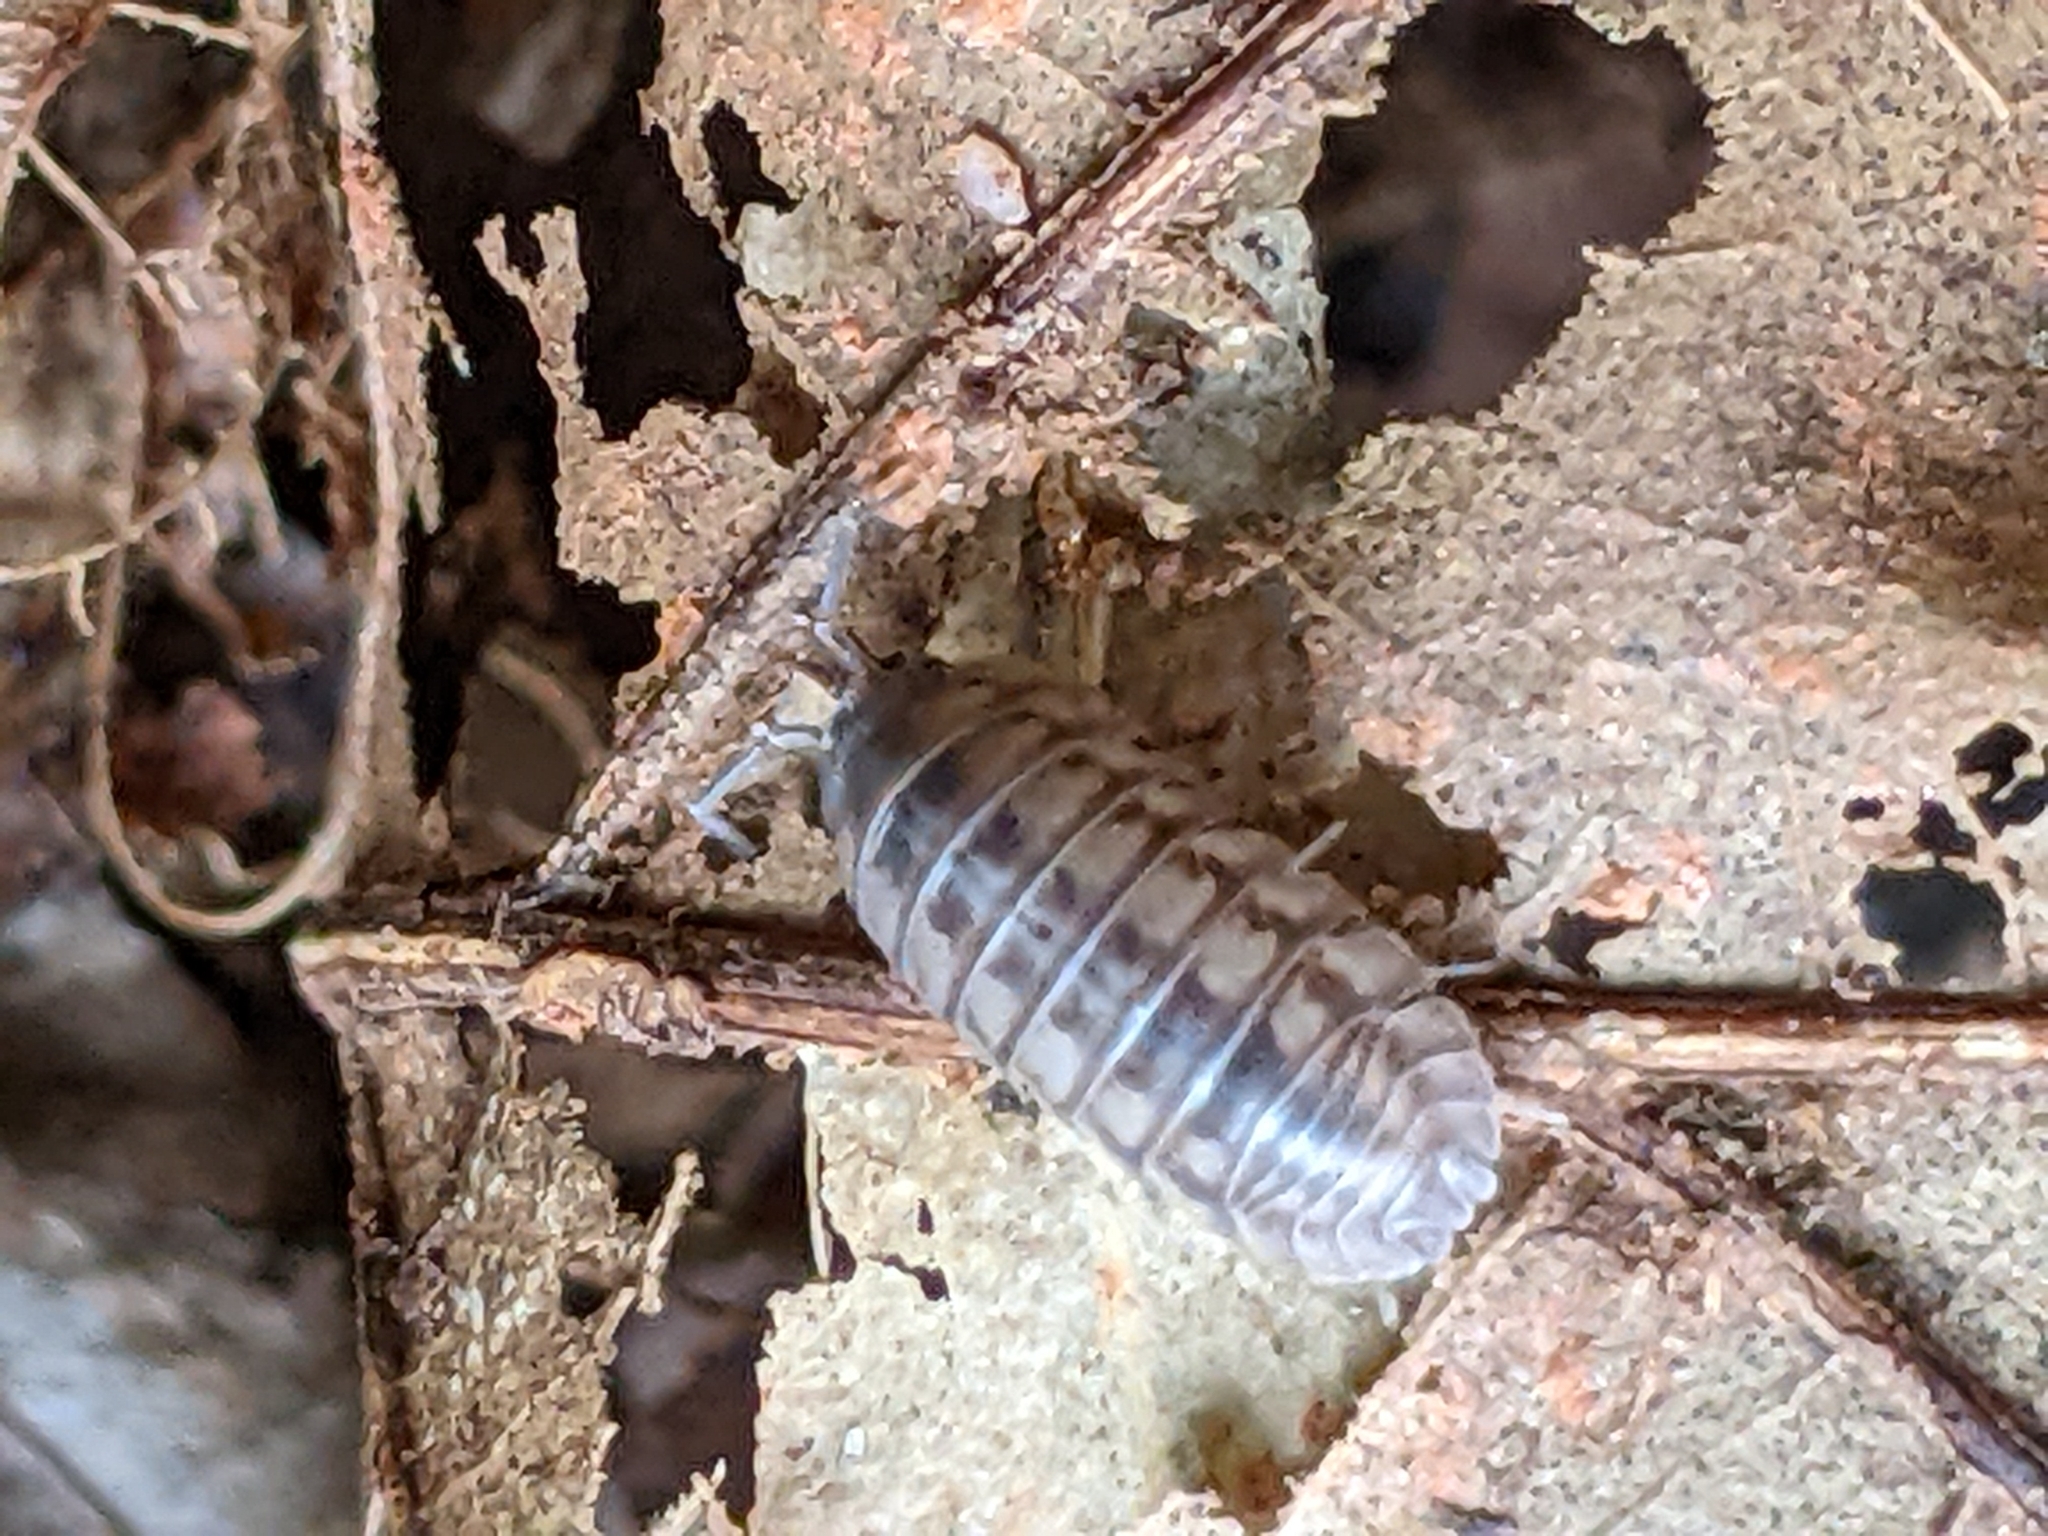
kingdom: Animalia
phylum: Arthropoda
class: Malacostraca
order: Isopoda
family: Armadillidiidae
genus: Armadillidium
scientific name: Armadillidium nasatum
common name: Isopod
